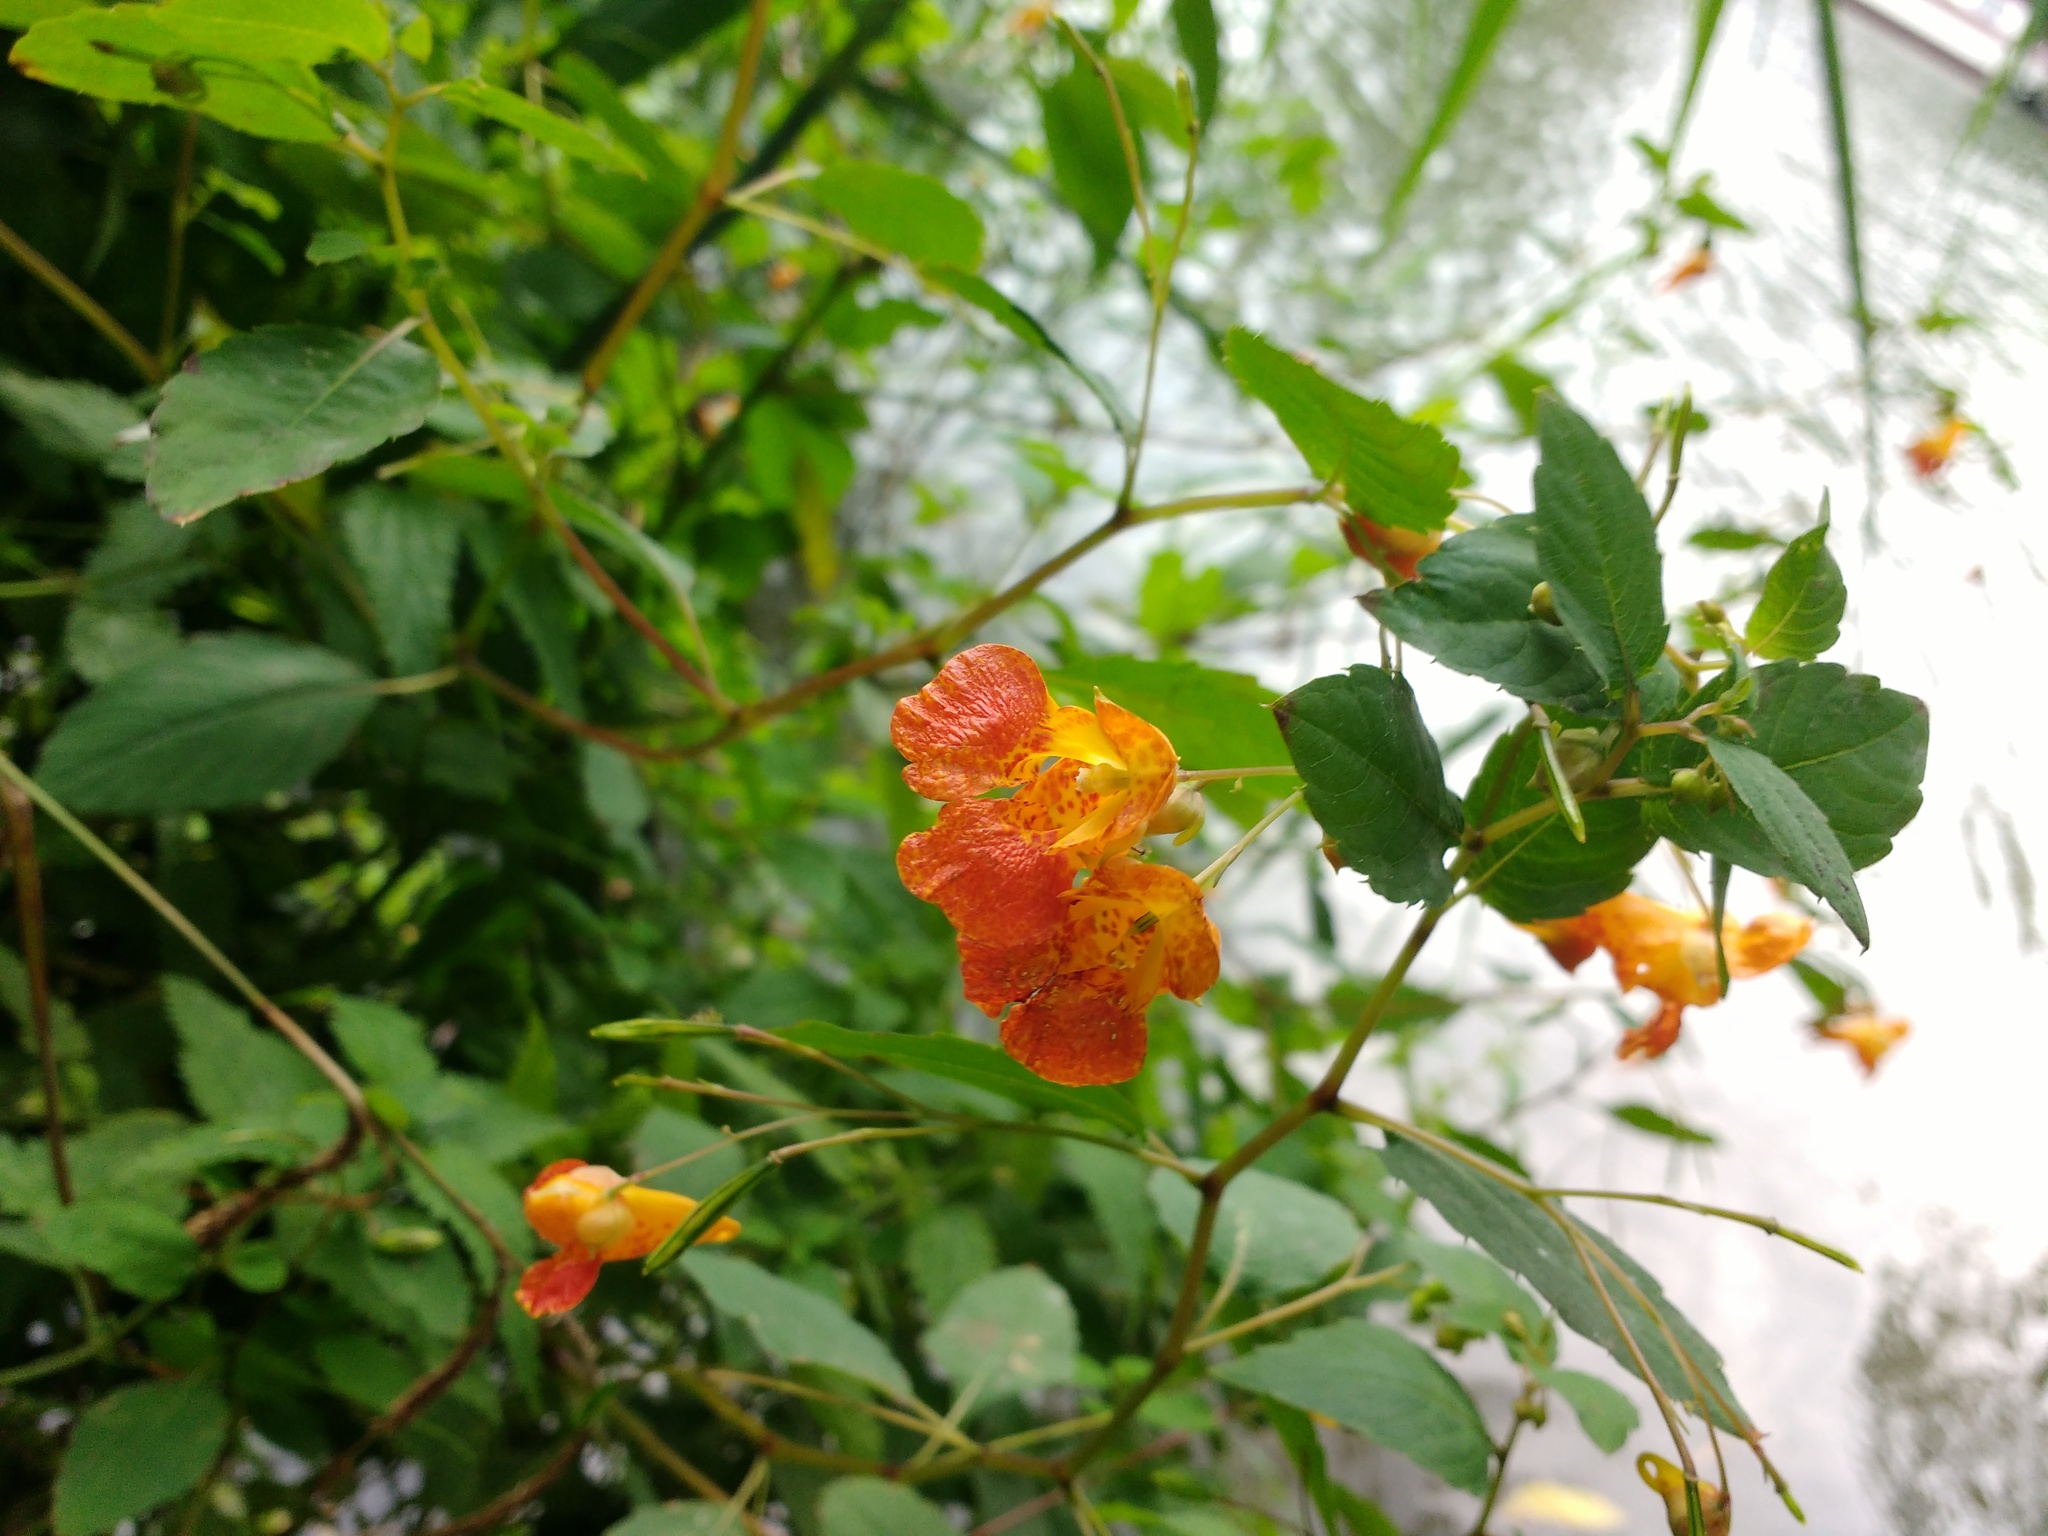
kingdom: Plantae
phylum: Tracheophyta
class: Magnoliopsida
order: Ericales
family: Balsaminaceae
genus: Impatiens
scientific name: Impatiens capensis
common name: Orange balsam
